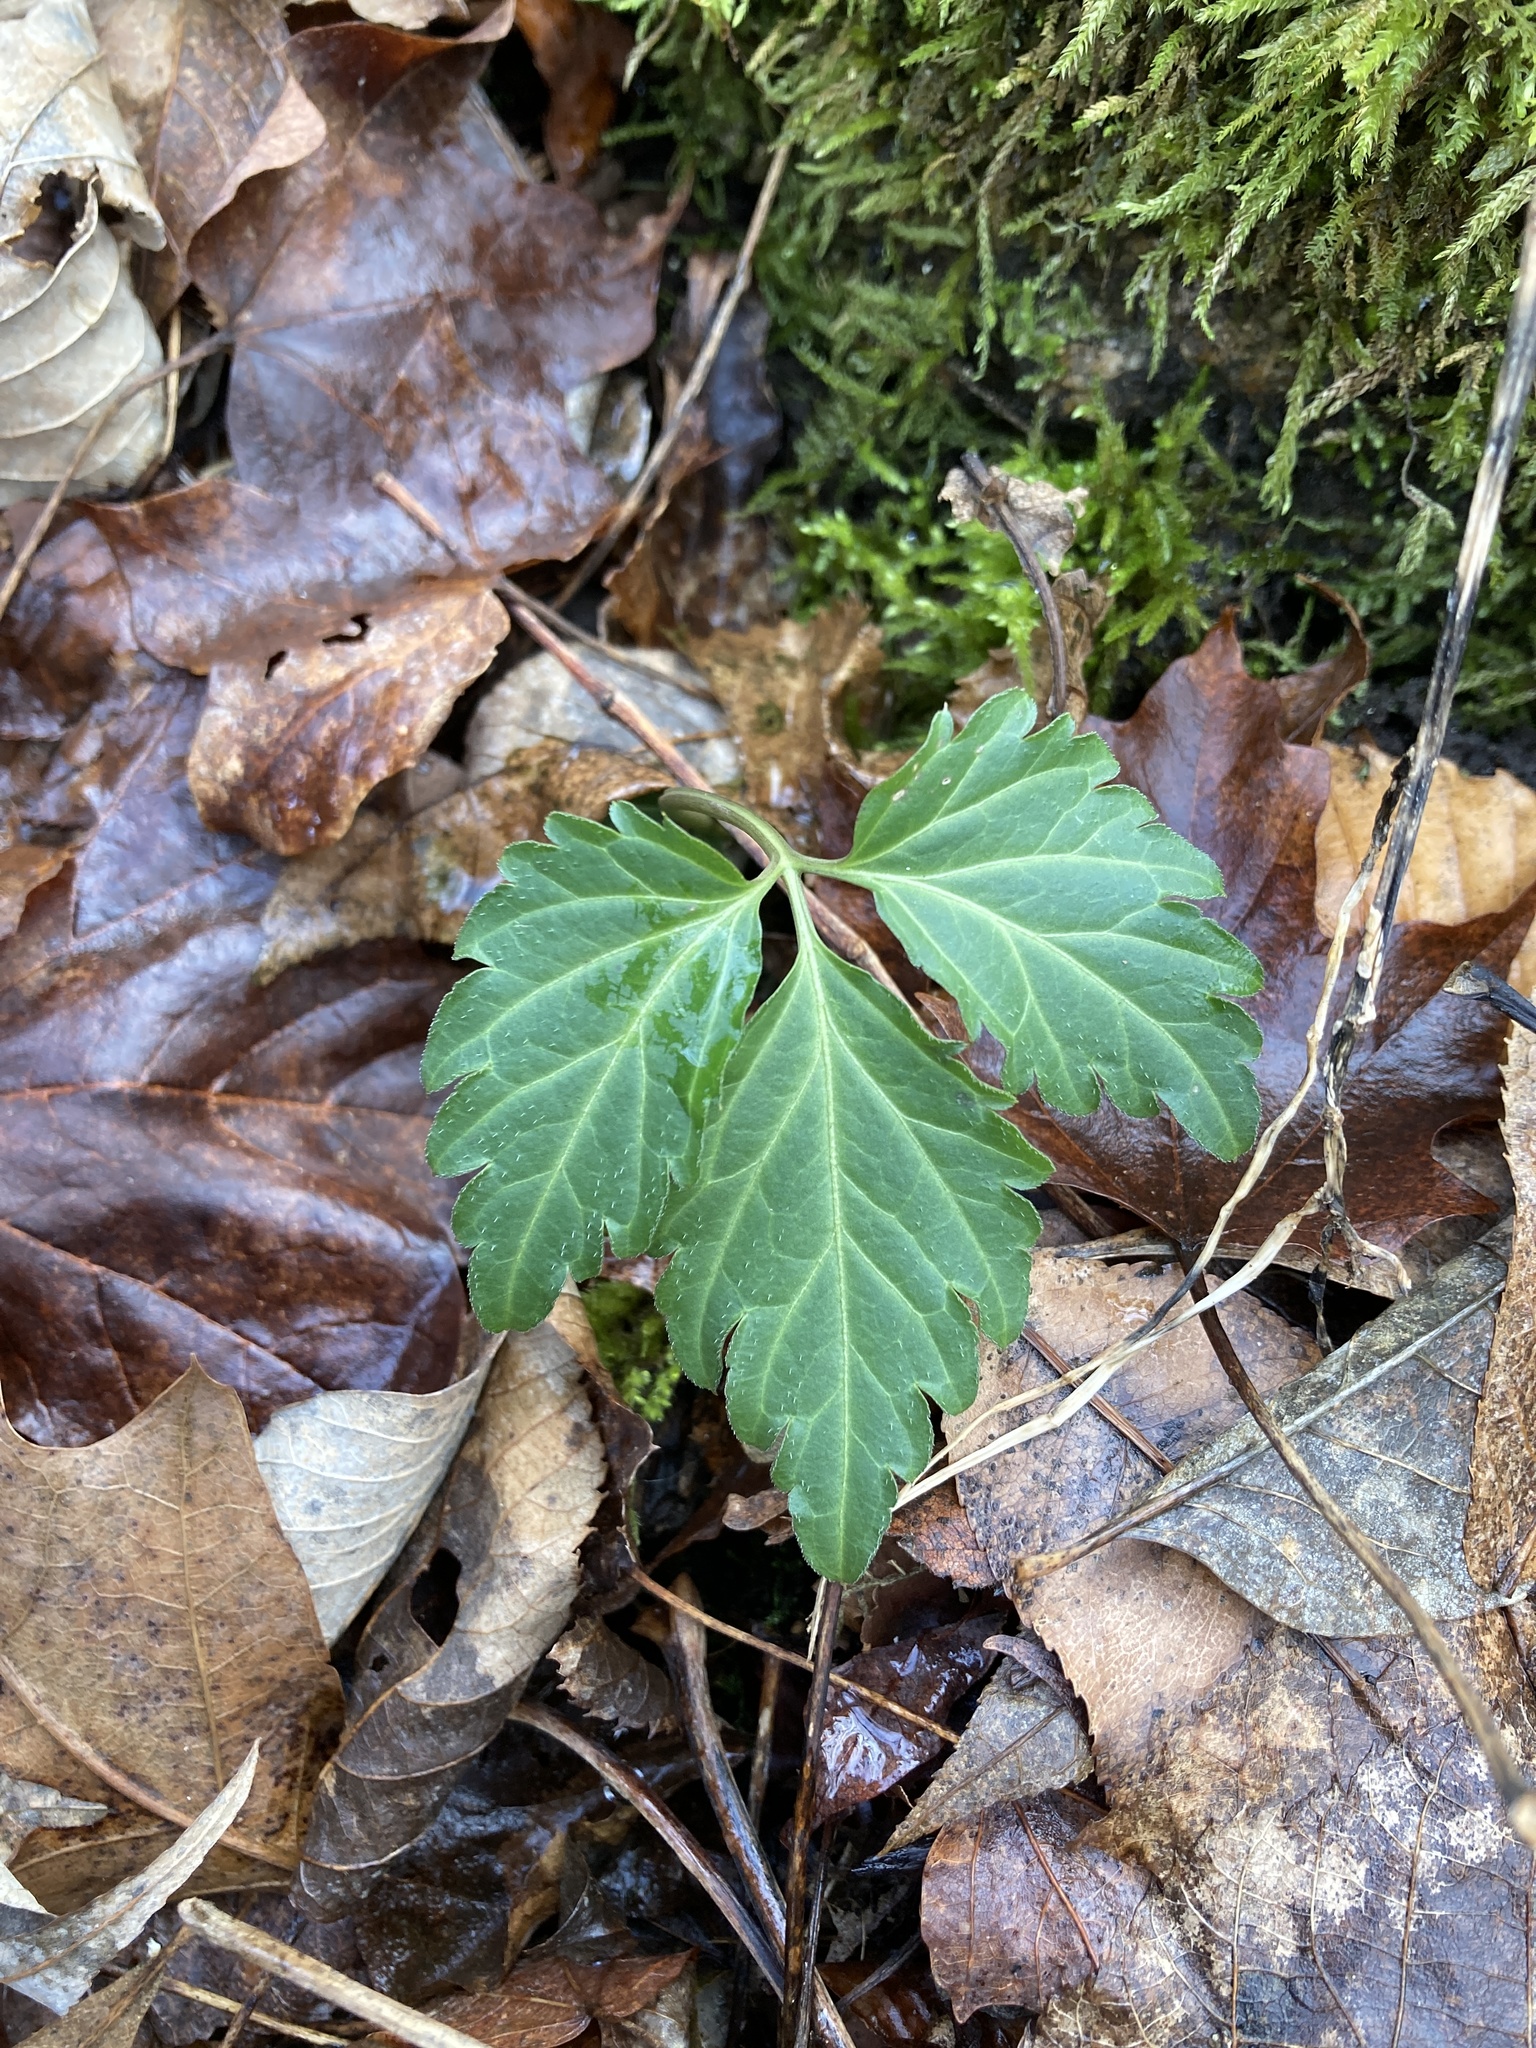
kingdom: Plantae
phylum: Tracheophyta
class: Magnoliopsida
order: Brassicales
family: Brassicaceae
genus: Cardamine
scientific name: Cardamine diphylla
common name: Broad-leaved toothwort
